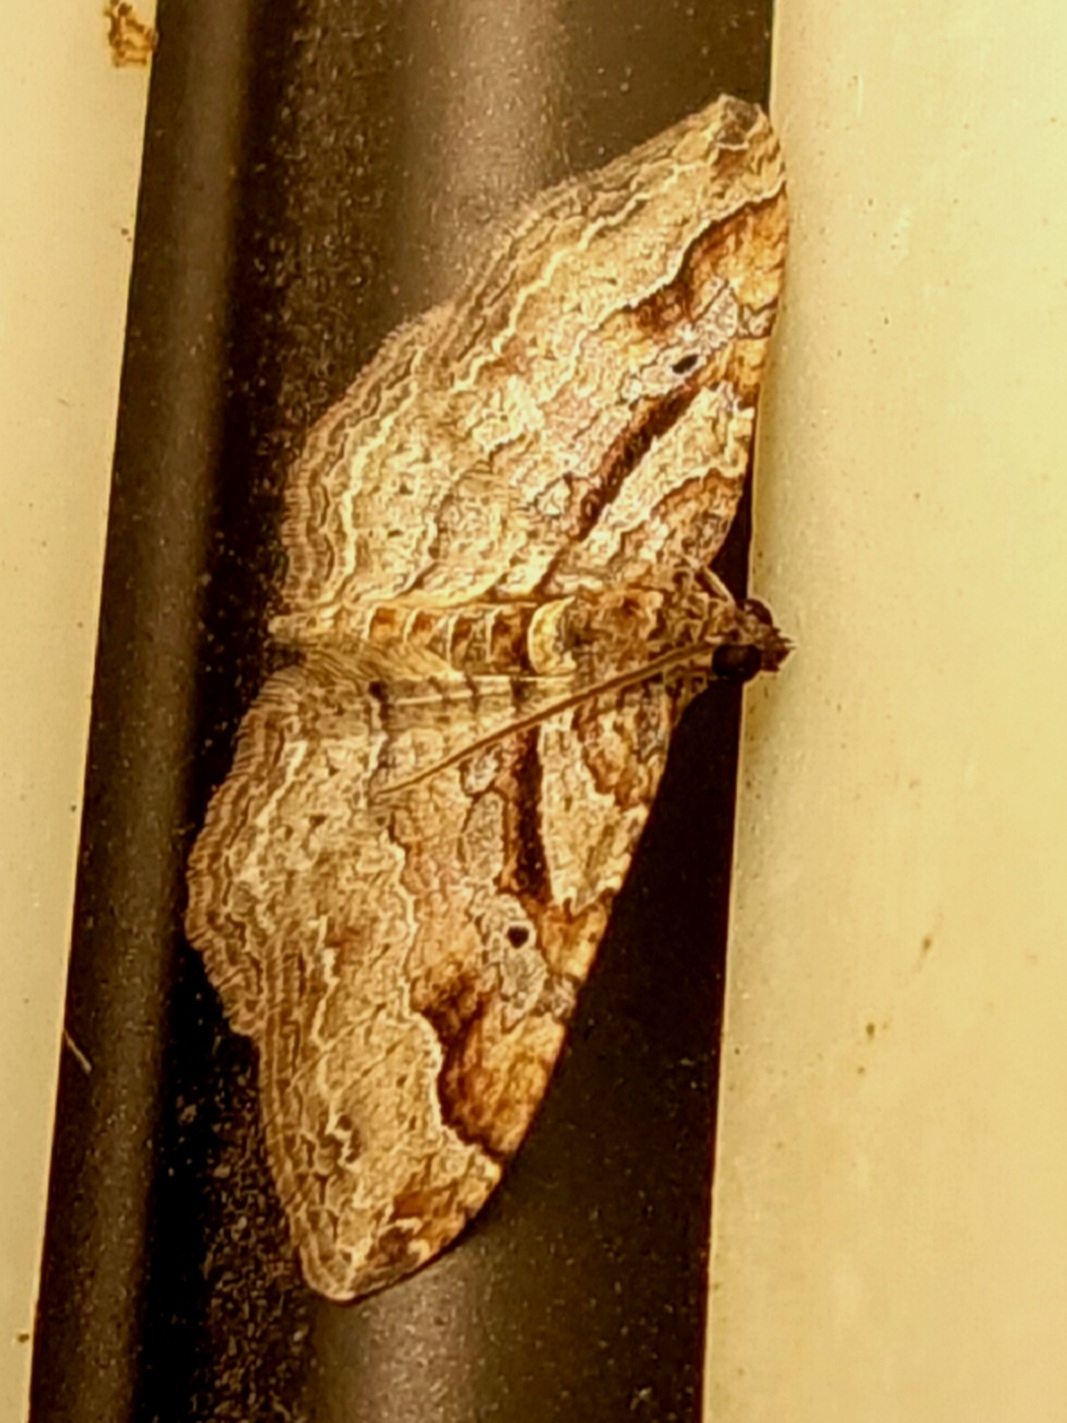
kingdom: Animalia
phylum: Arthropoda
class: Insecta
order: Lepidoptera
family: Geometridae
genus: Costaconvexa
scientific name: Costaconvexa centrostrigaria
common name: Bent-line carpet
